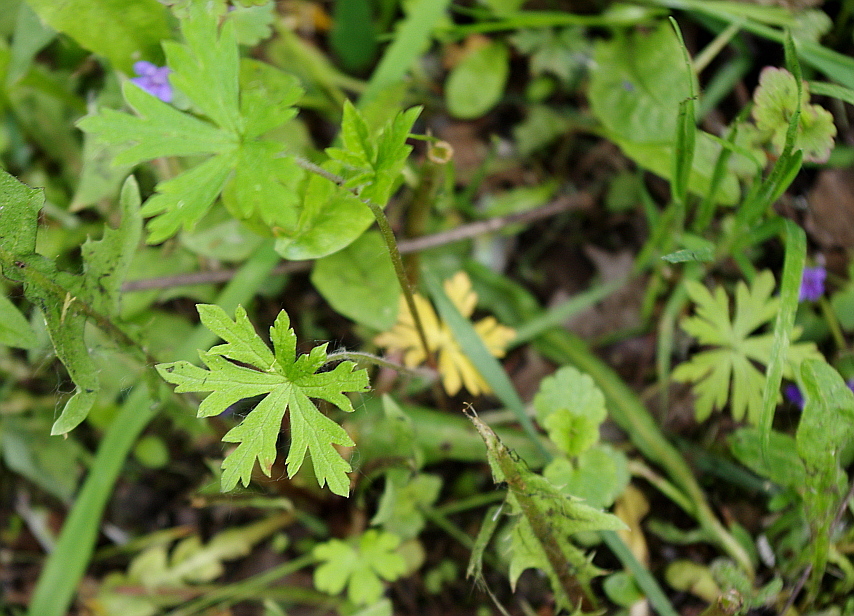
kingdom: Plantae
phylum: Tracheophyta
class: Magnoliopsida
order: Geraniales
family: Geraniaceae
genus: Geranium
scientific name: Geranium sibiricum
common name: Siberian crane's-bill
